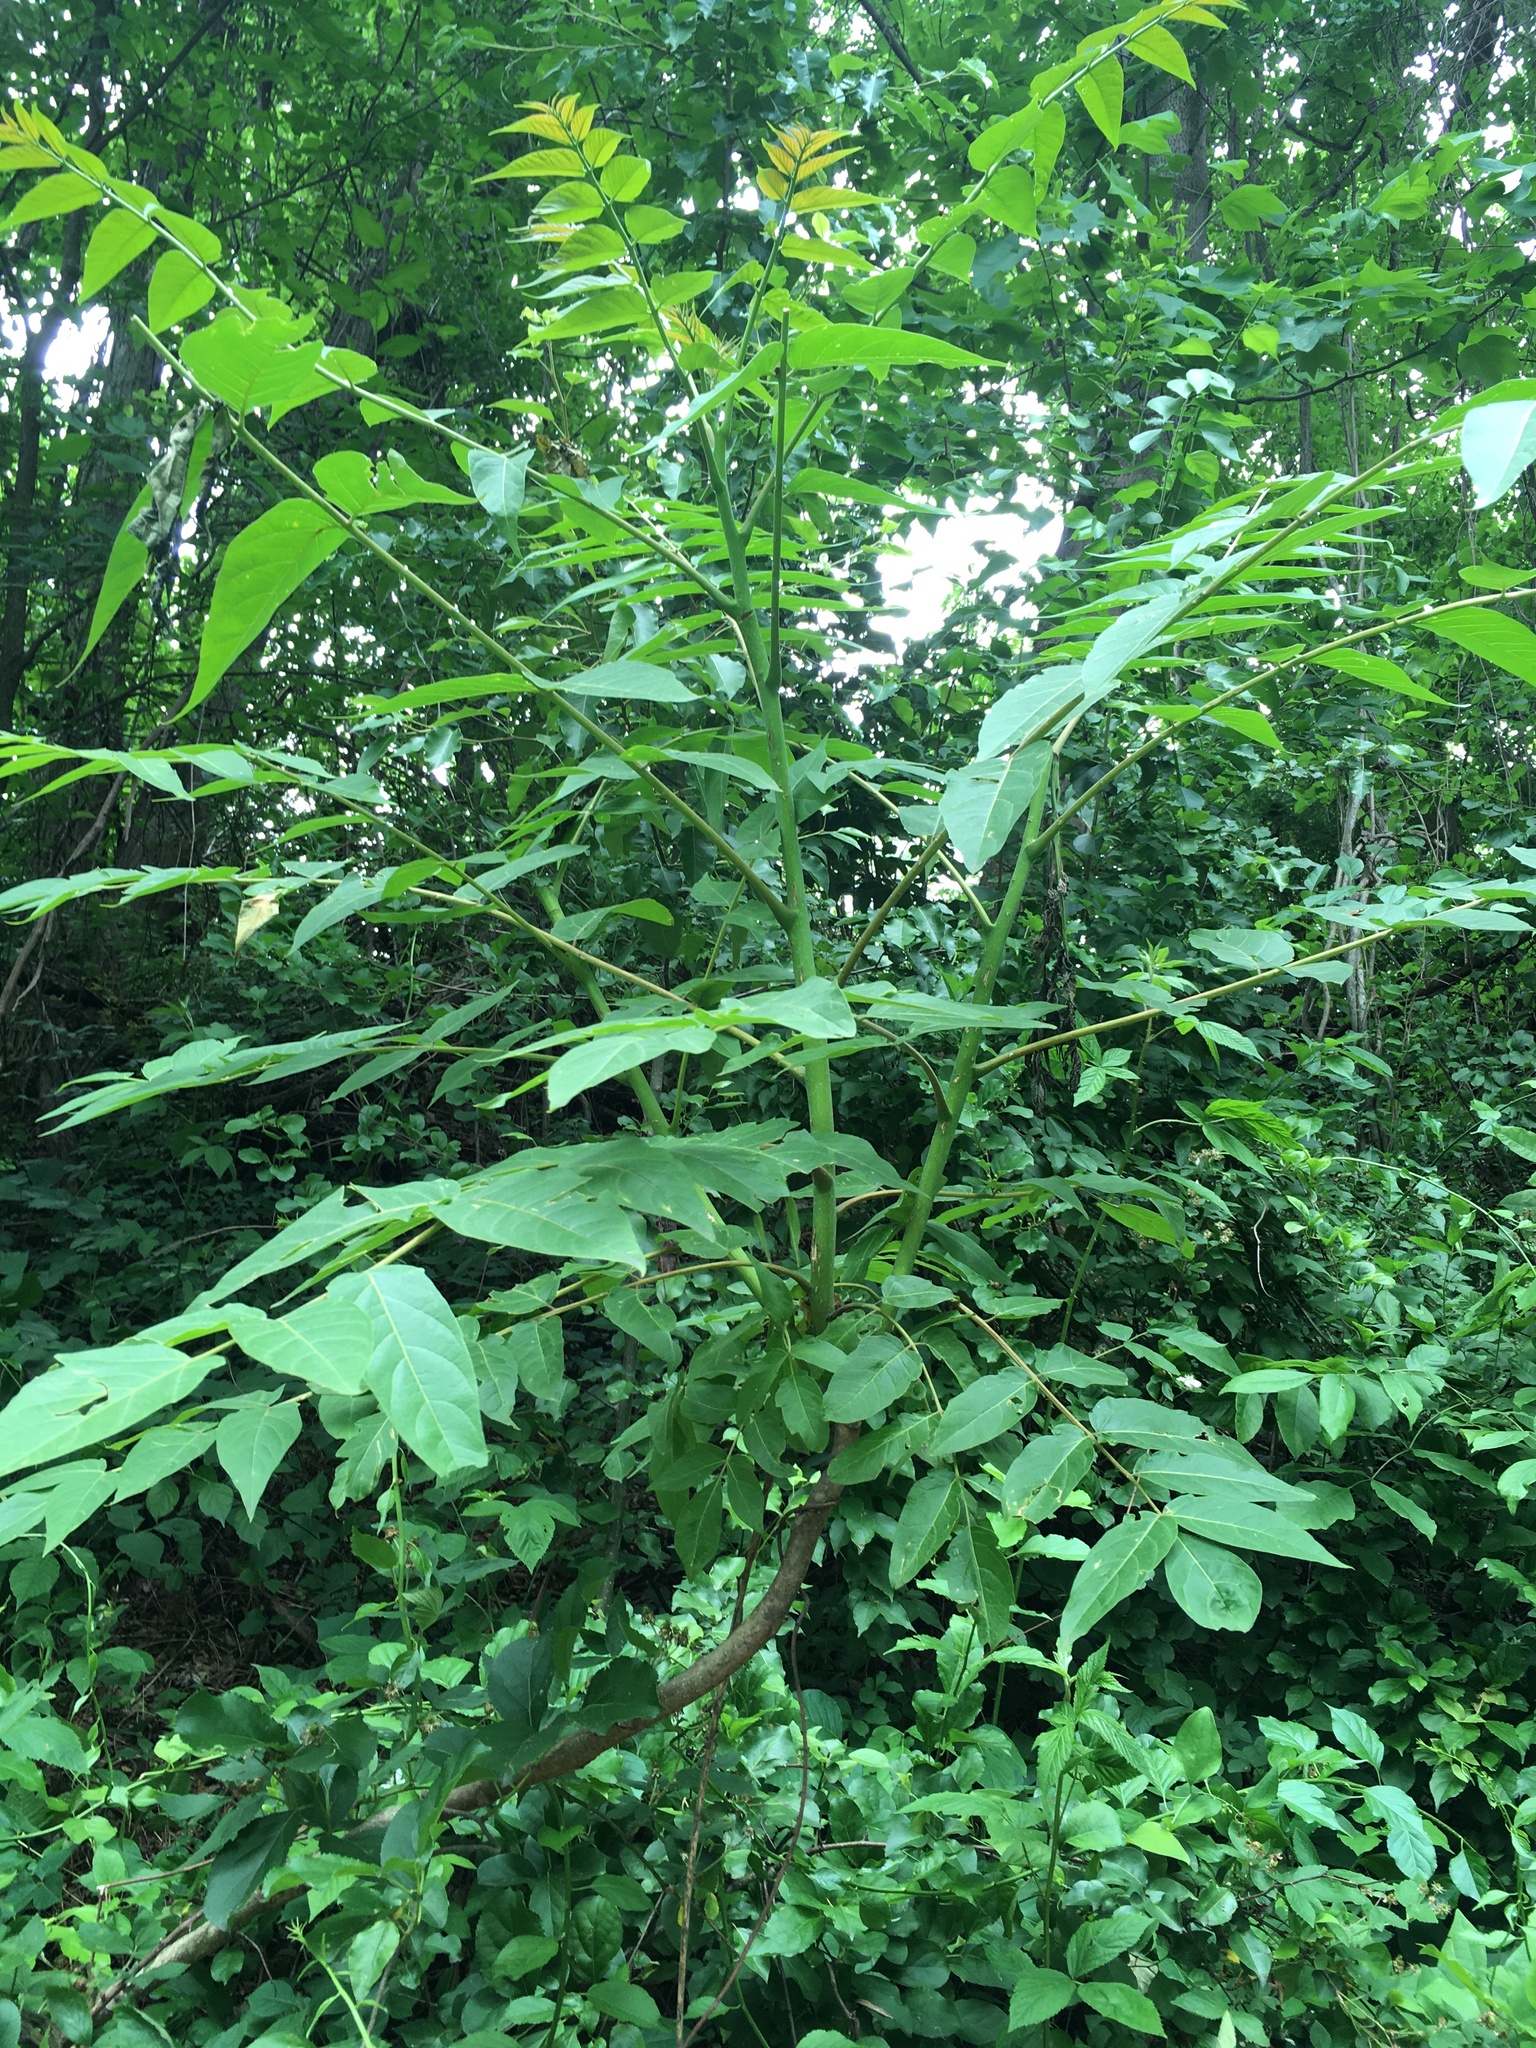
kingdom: Plantae
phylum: Tracheophyta
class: Magnoliopsida
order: Sapindales
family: Simaroubaceae
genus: Ailanthus
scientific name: Ailanthus altissima
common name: Tree-of-heaven
